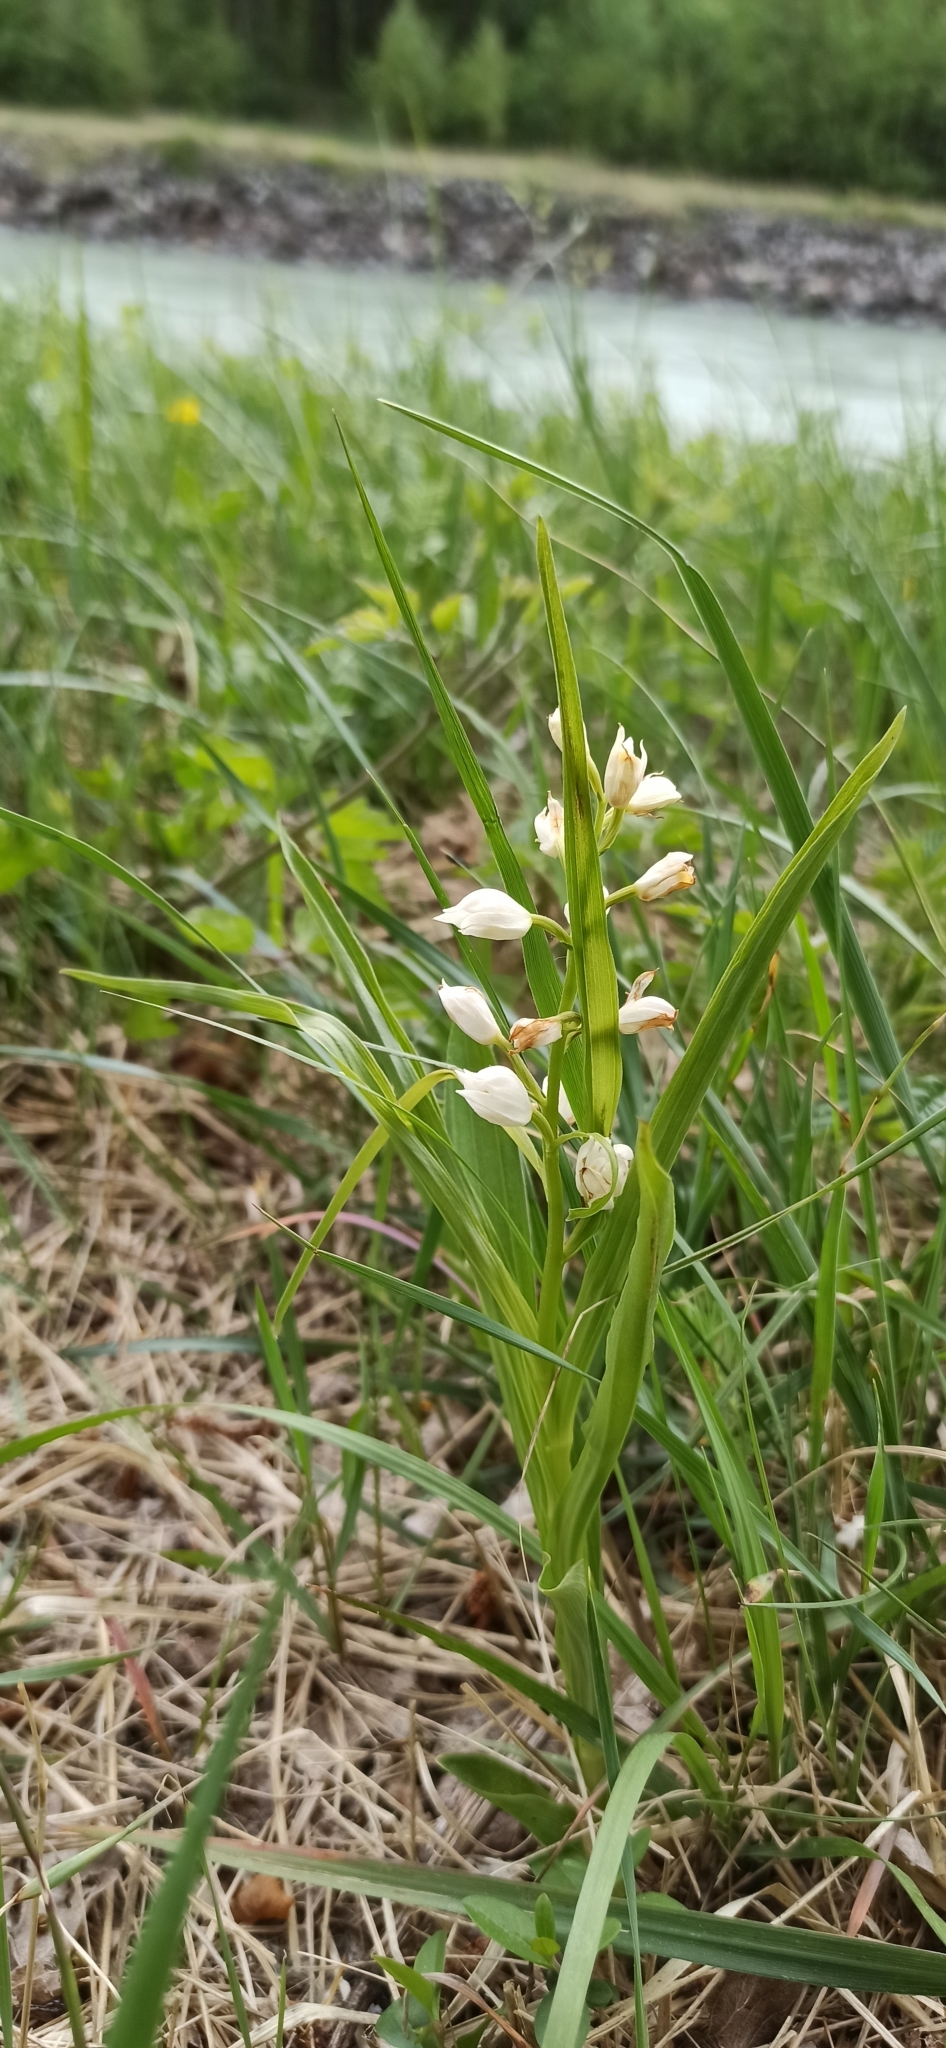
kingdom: Plantae
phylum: Tracheophyta
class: Liliopsida
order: Asparagales
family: Orchidaceae
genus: Cephalanthera
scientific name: Cephalanthera longifolia
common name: Narrow-leaved helleborine
